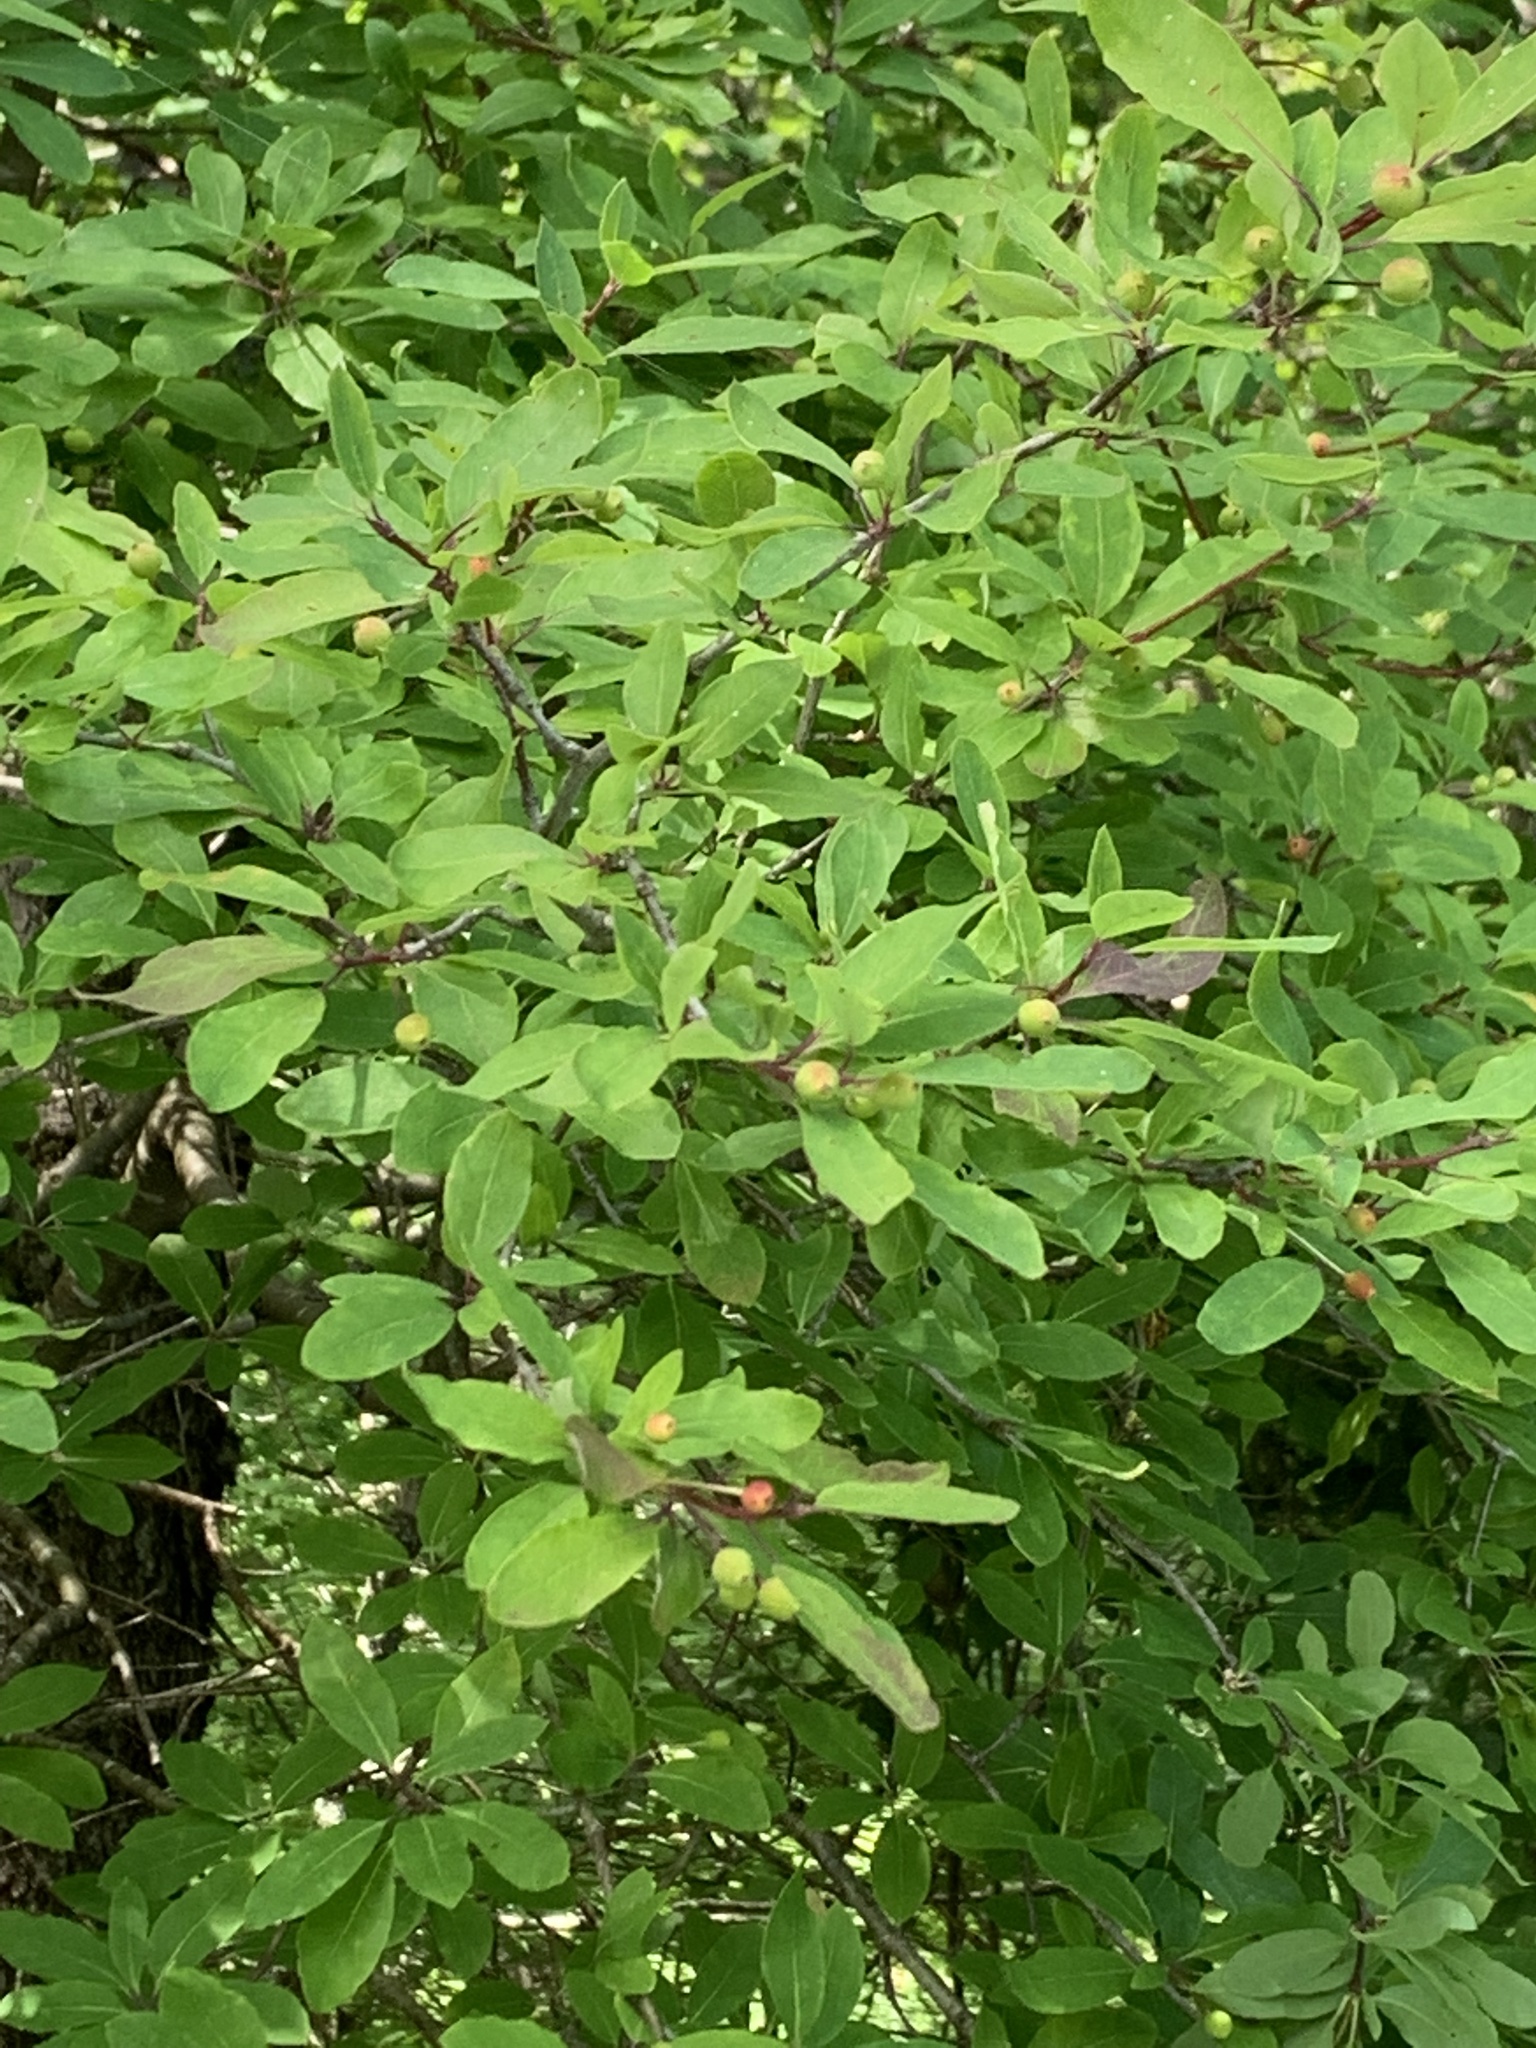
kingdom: Plantae
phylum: Tracheophyta
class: Magnoliopsida
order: Aquifoliales
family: Aquifoliaceae
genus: Ilex
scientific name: Ilex mucronata
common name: Catberry
